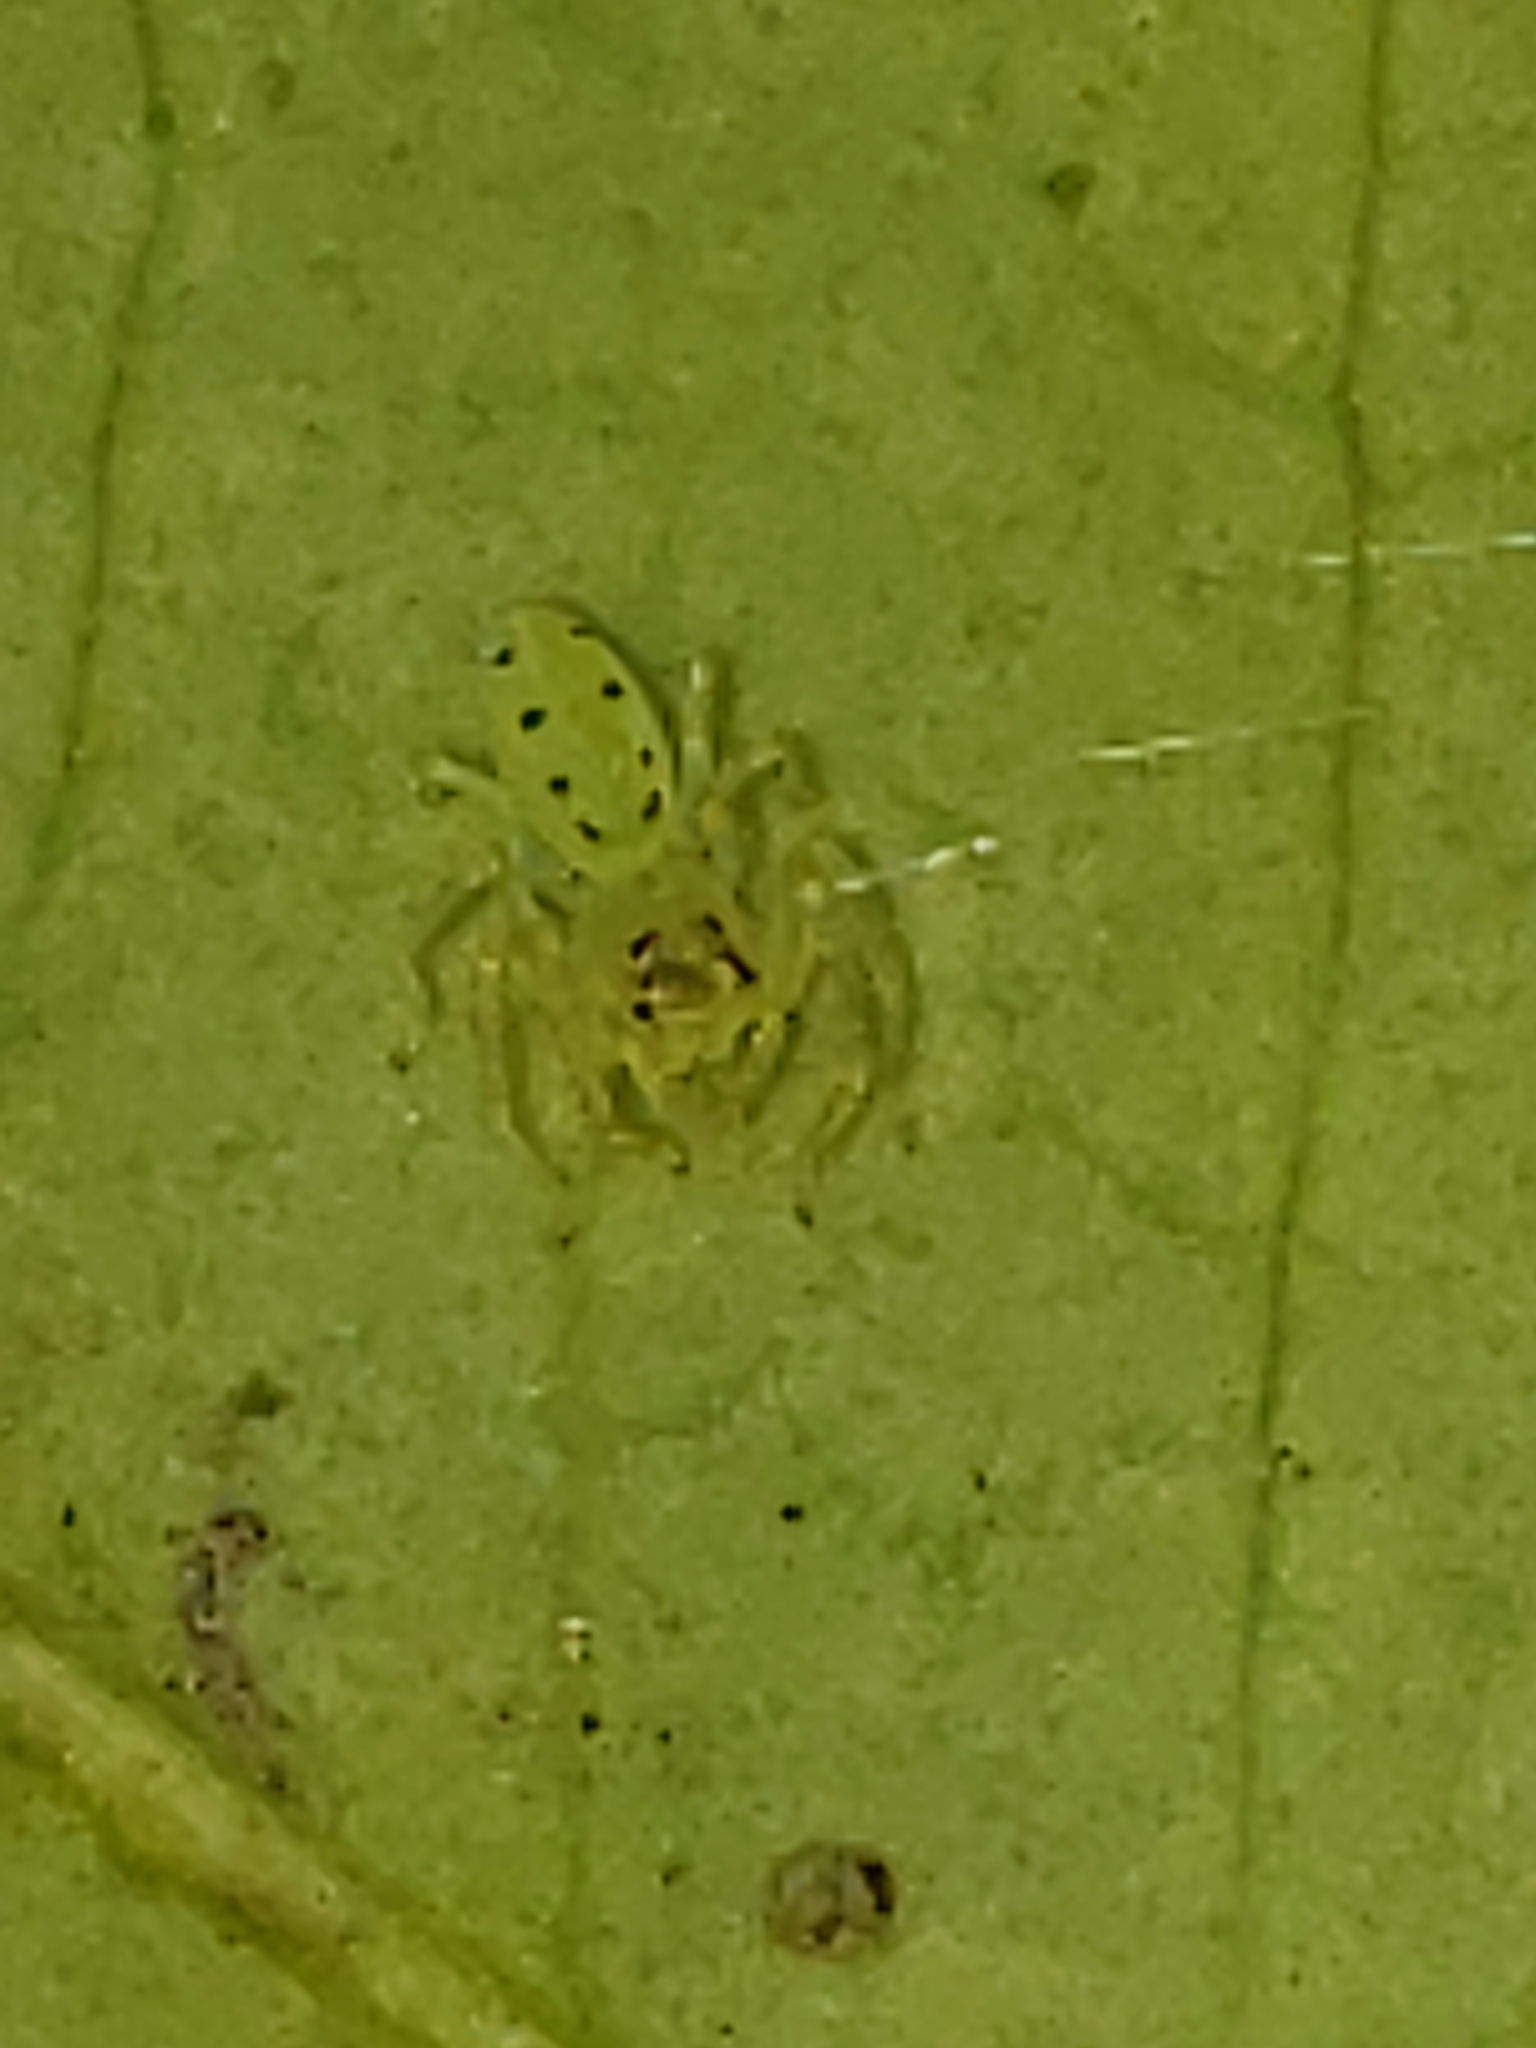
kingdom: Animalia
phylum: Arthropoda
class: Arachnida
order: Araneae
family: Salticidae
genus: Lyssomanes
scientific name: Lyssomanes viridis
